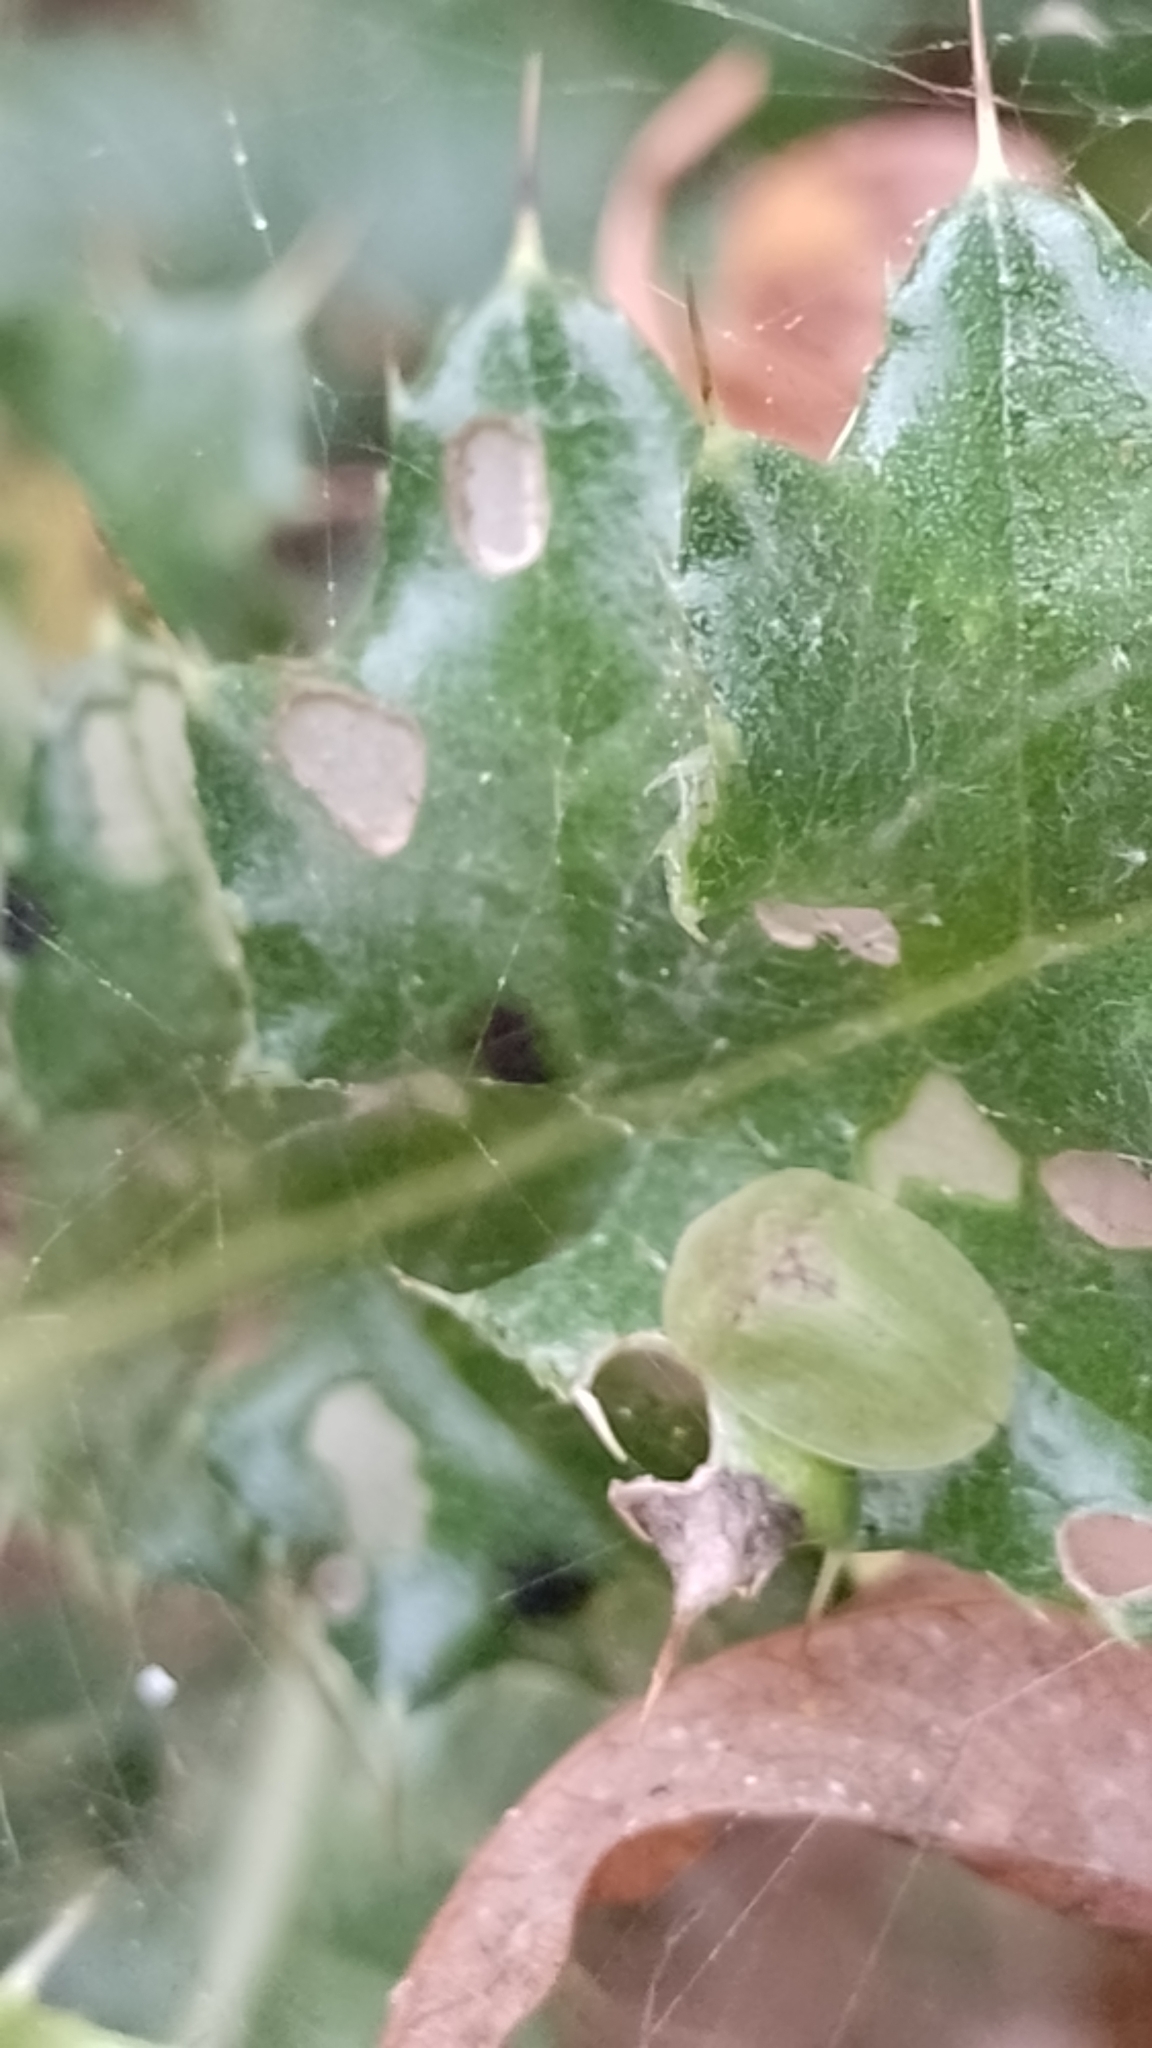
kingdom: Animalia
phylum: Arthropoda
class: Insecta
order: Coleoptera
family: Chrysomelidae
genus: Cassida
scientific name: Cassida rubiginosa
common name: Thistle tortoise beetle
